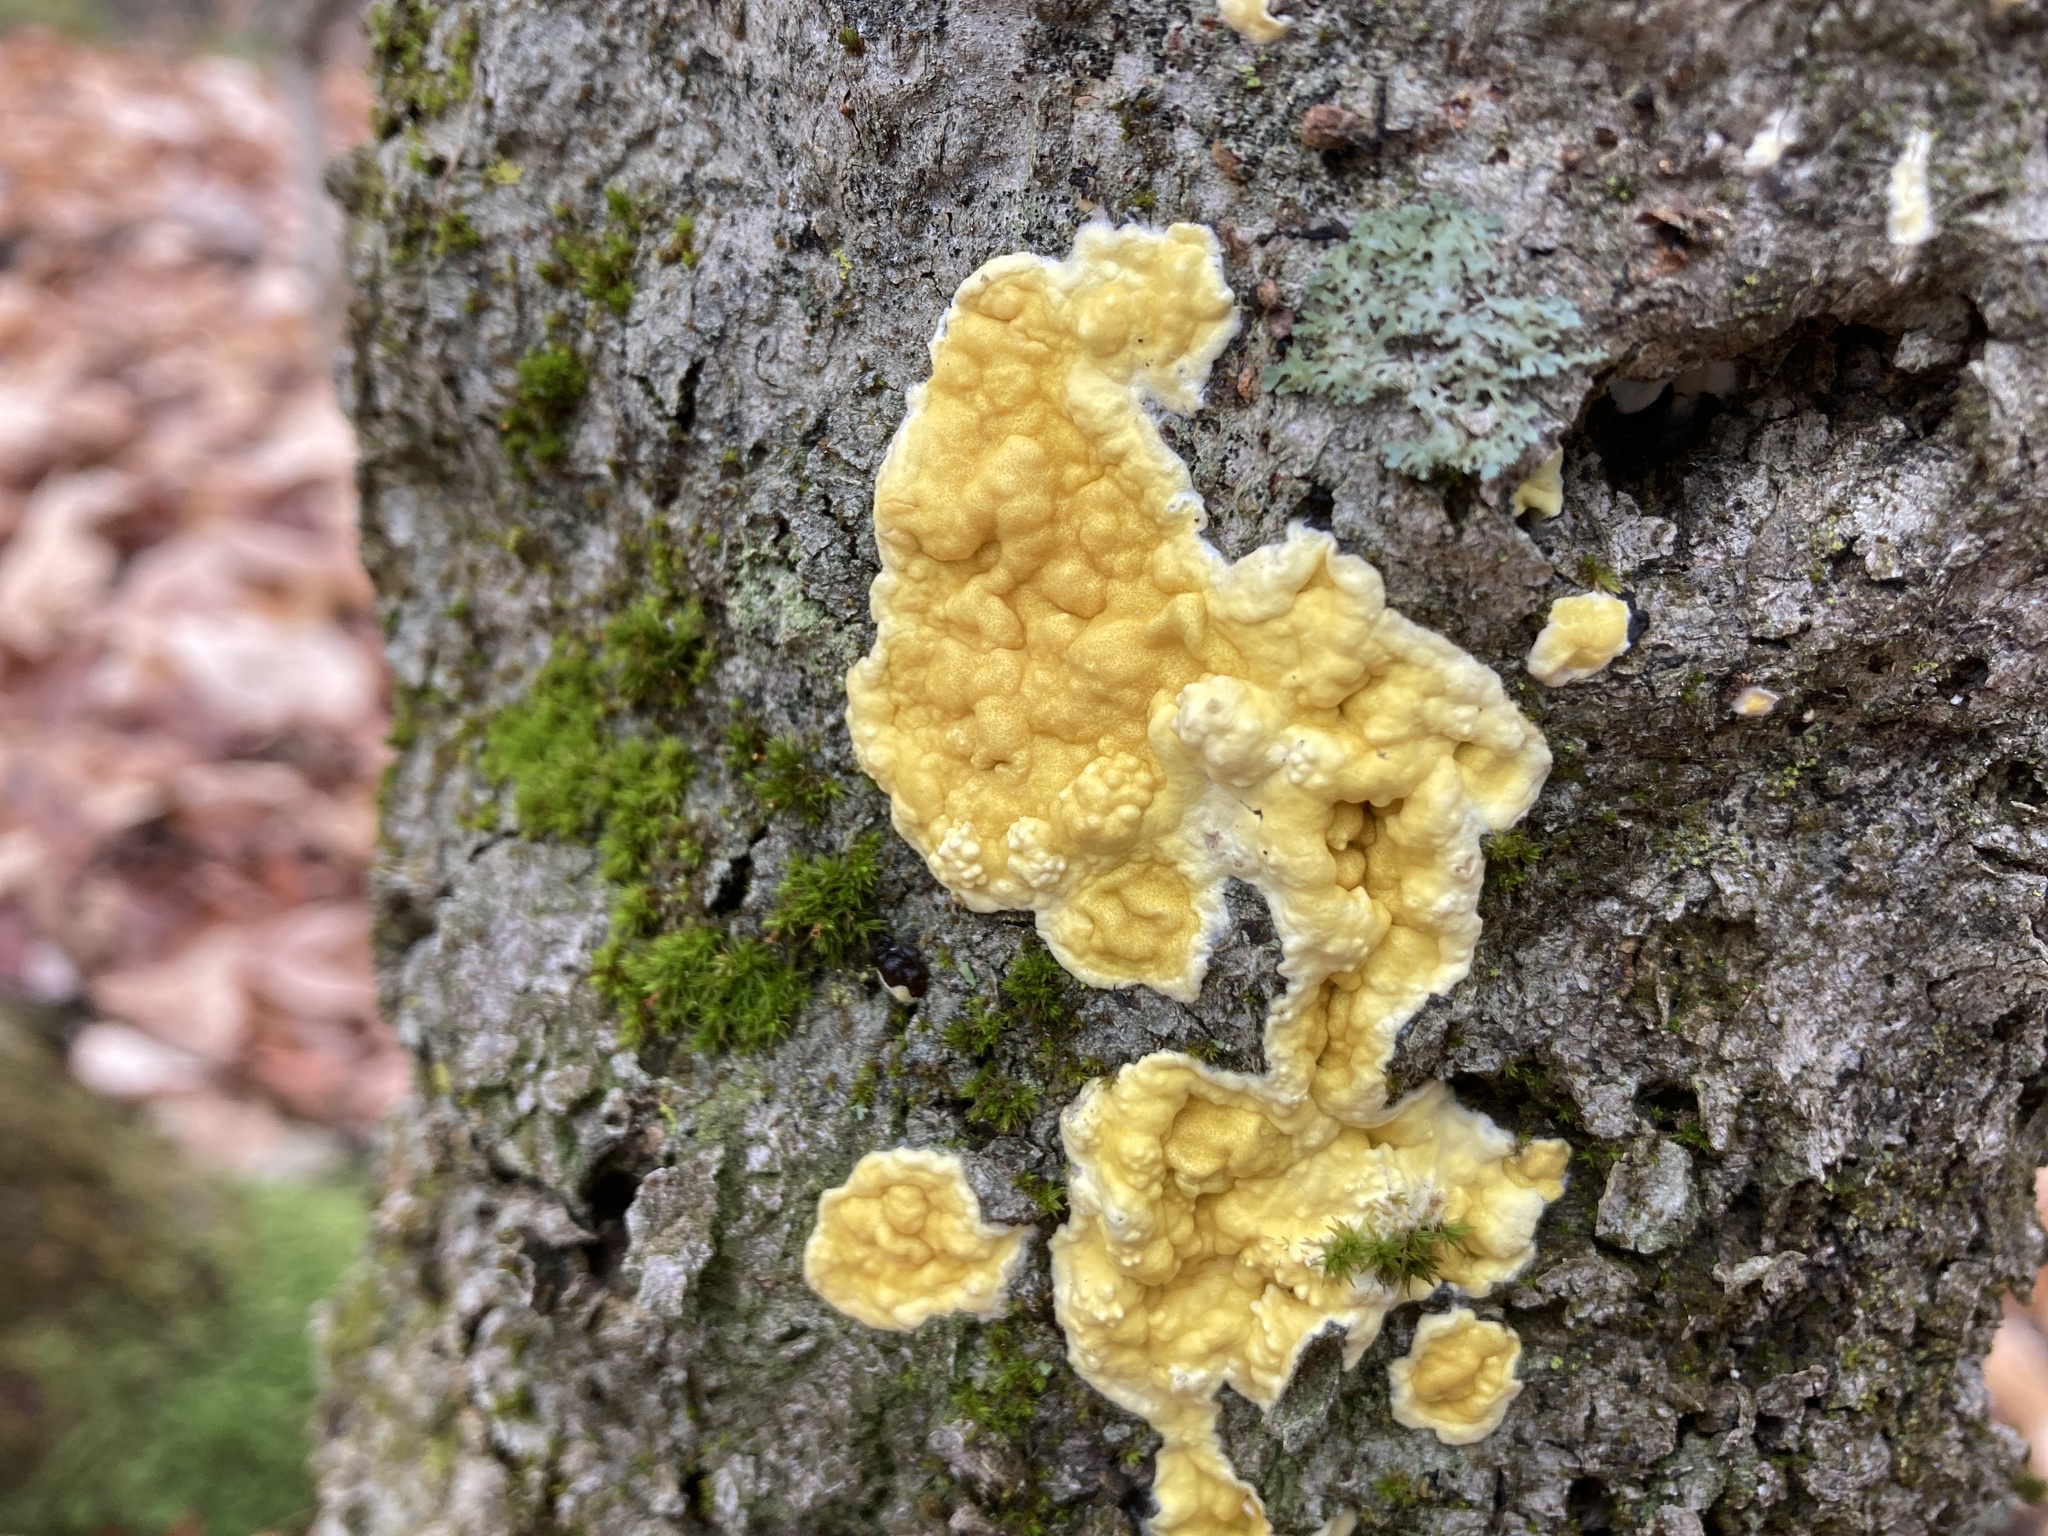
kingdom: Fungi
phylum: Ascomycota
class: Sordariomycetes
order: Hypocreales
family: Hypocreaceae
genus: Trichoderma
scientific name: Trichoderma sulphureum
